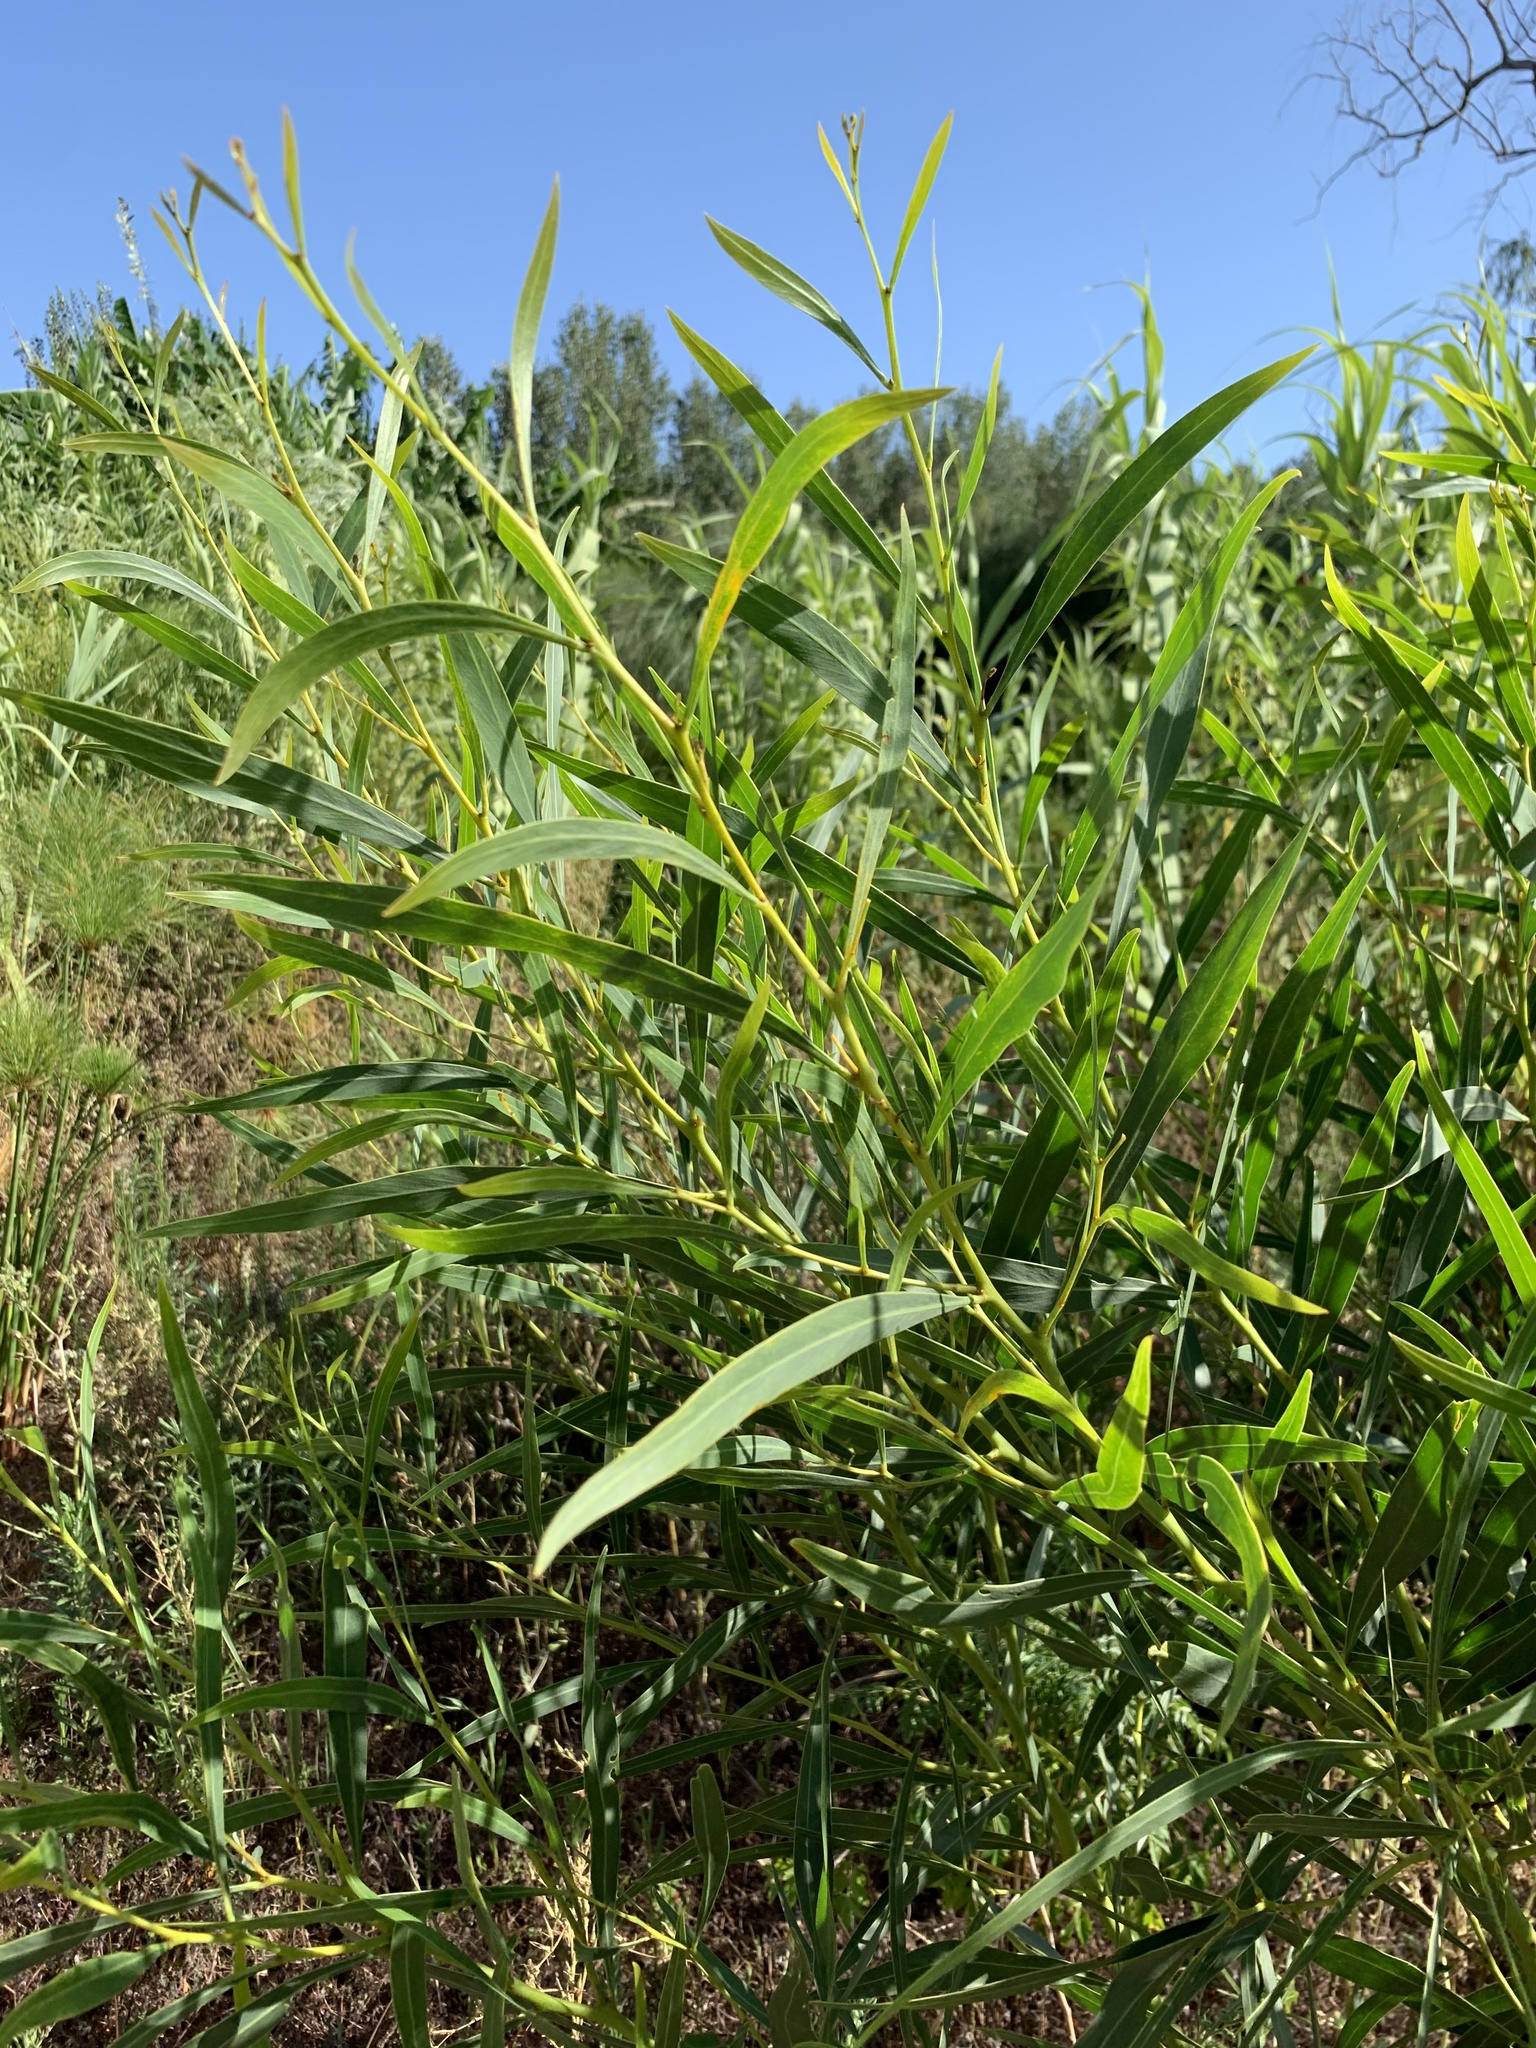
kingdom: Plantae
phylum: Tracheophyta
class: Magnoliopsida
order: Fabales
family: Fabaceae
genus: Acacia
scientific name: Acacia saligna
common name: Orange wattle
